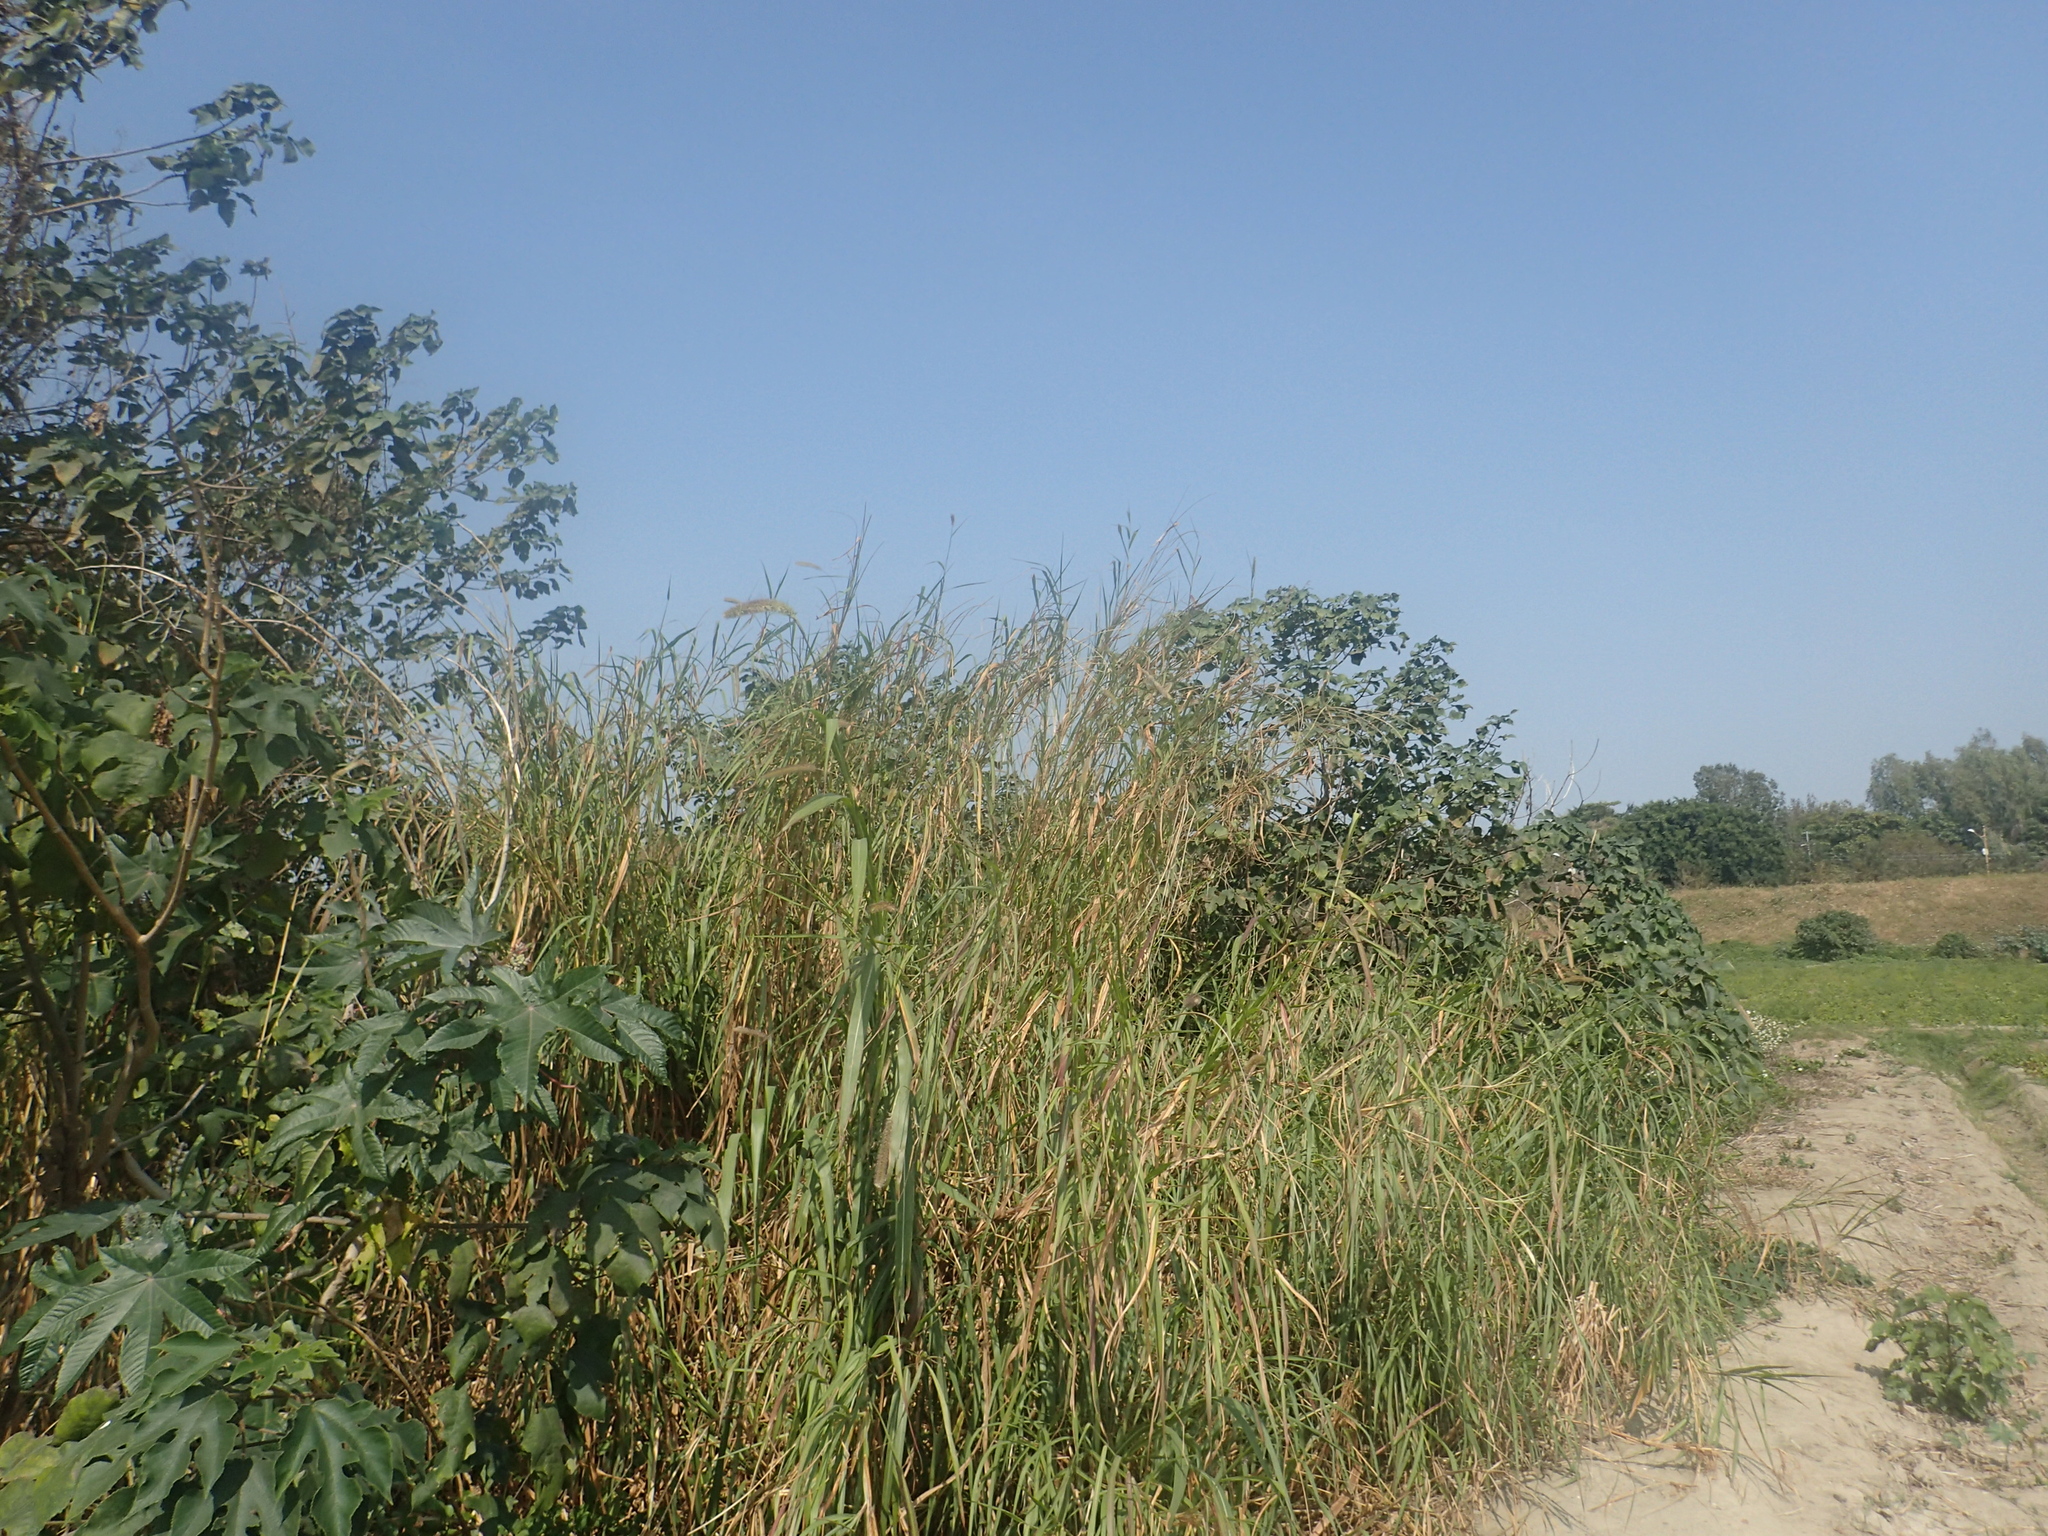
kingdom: Plantae
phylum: Tracheophyta
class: Liliopsida
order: Poales
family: Poaceae
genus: Cenchrus
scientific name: Cenchrus purpureus
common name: Elephant grass
